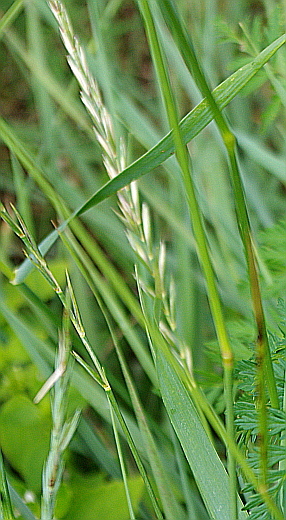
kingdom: Plantae
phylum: Tracheophyta
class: Liliopsida
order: Poales
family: Poaceae
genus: Elymus
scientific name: Elymus repens
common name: Quackgrass
